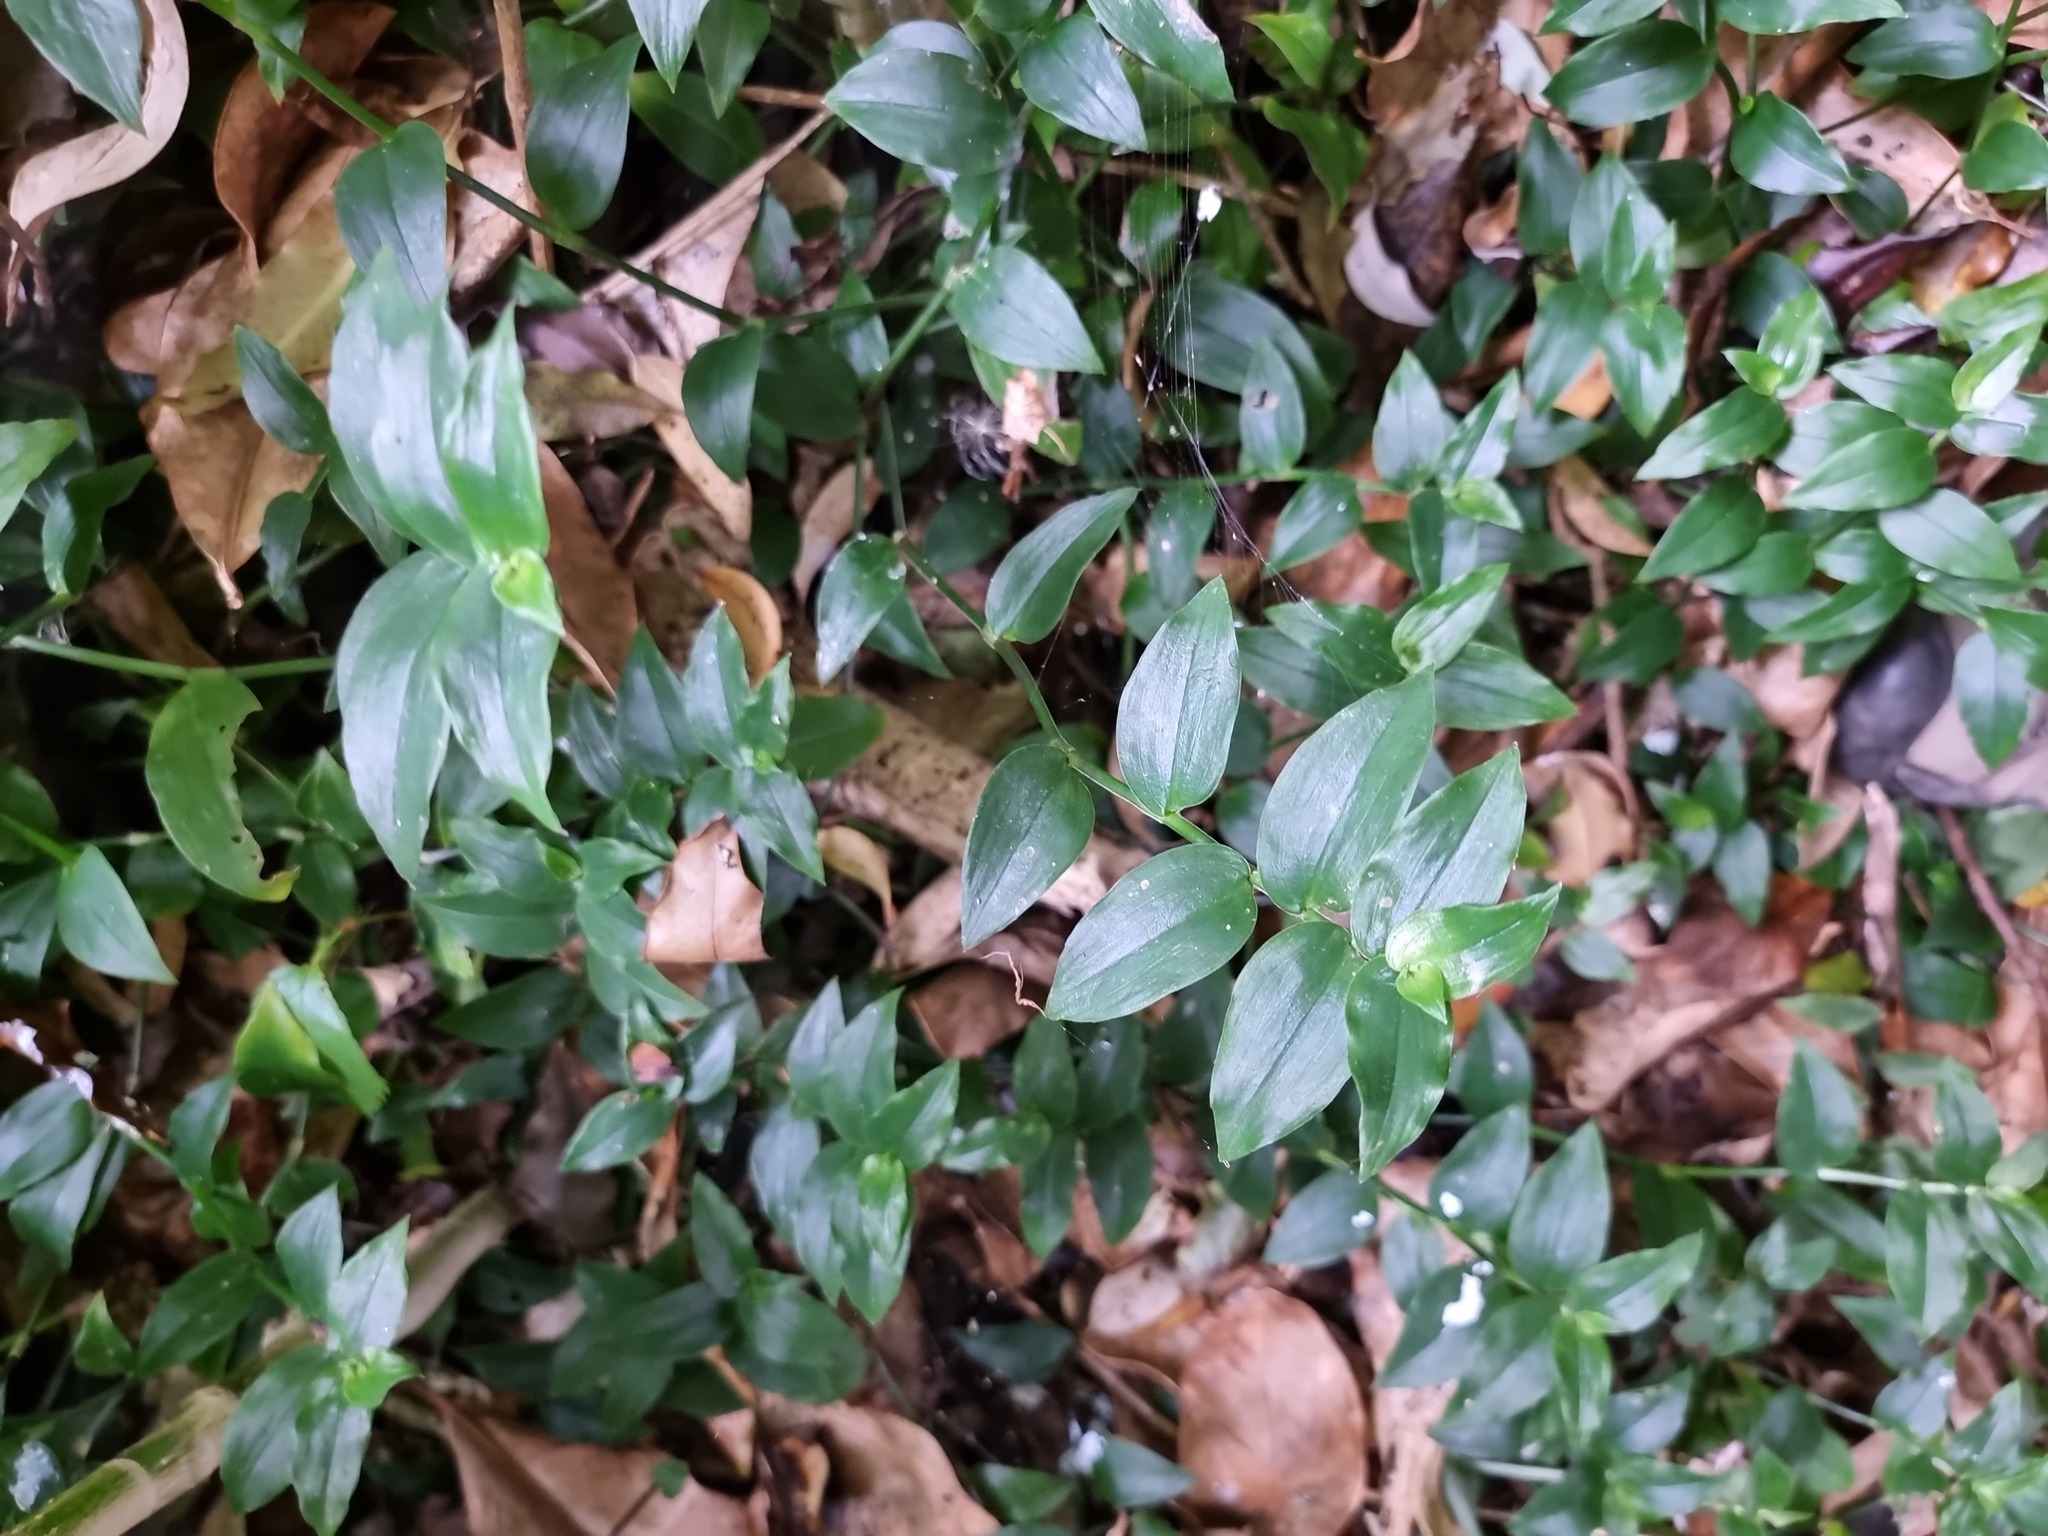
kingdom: Plantae
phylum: Tracheophyta
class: Liliopsida
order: Commelinales
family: Commelinaceae
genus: Tradescantia
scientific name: Tradescantia fluminensis
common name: Wandering-jew
